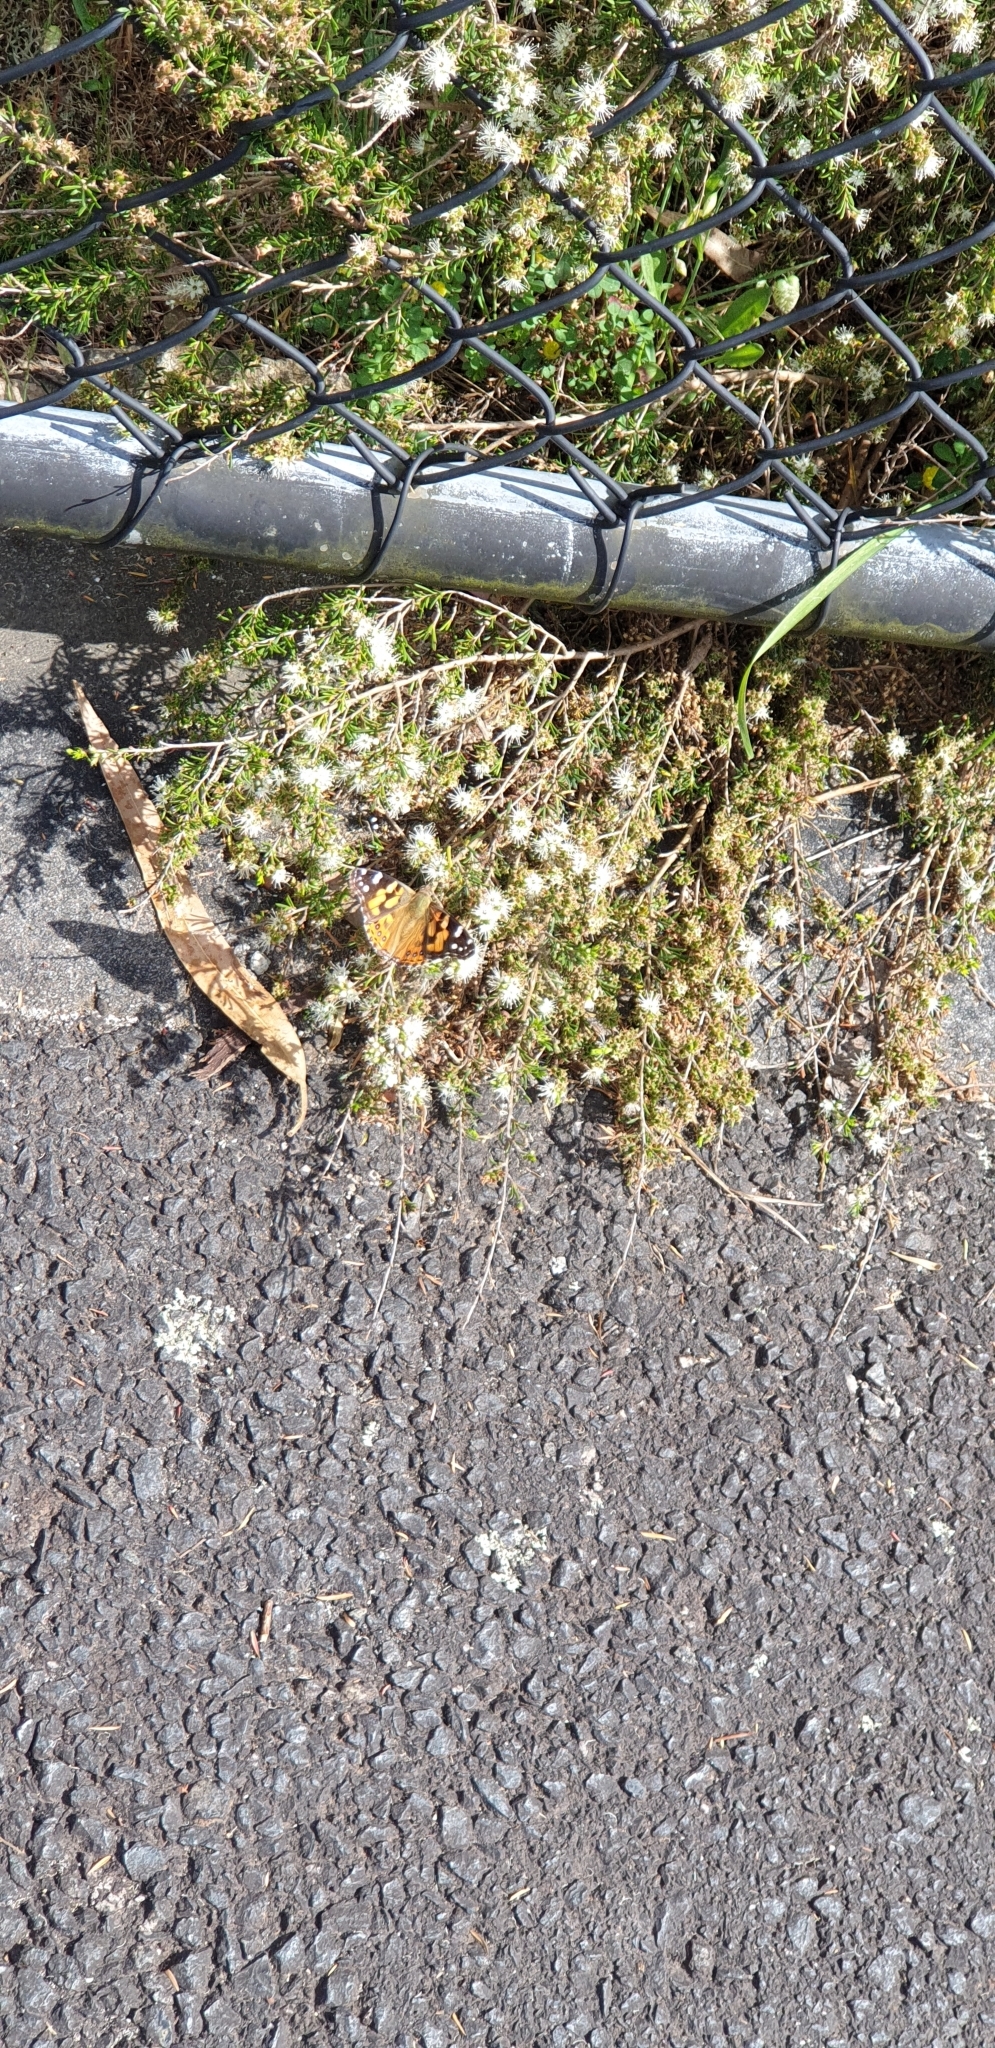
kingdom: Animalia
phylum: Arthropoda
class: Insecta
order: Lepidoptera
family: Nymphalidae
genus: Vanessa
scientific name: Vanessa kershawi
